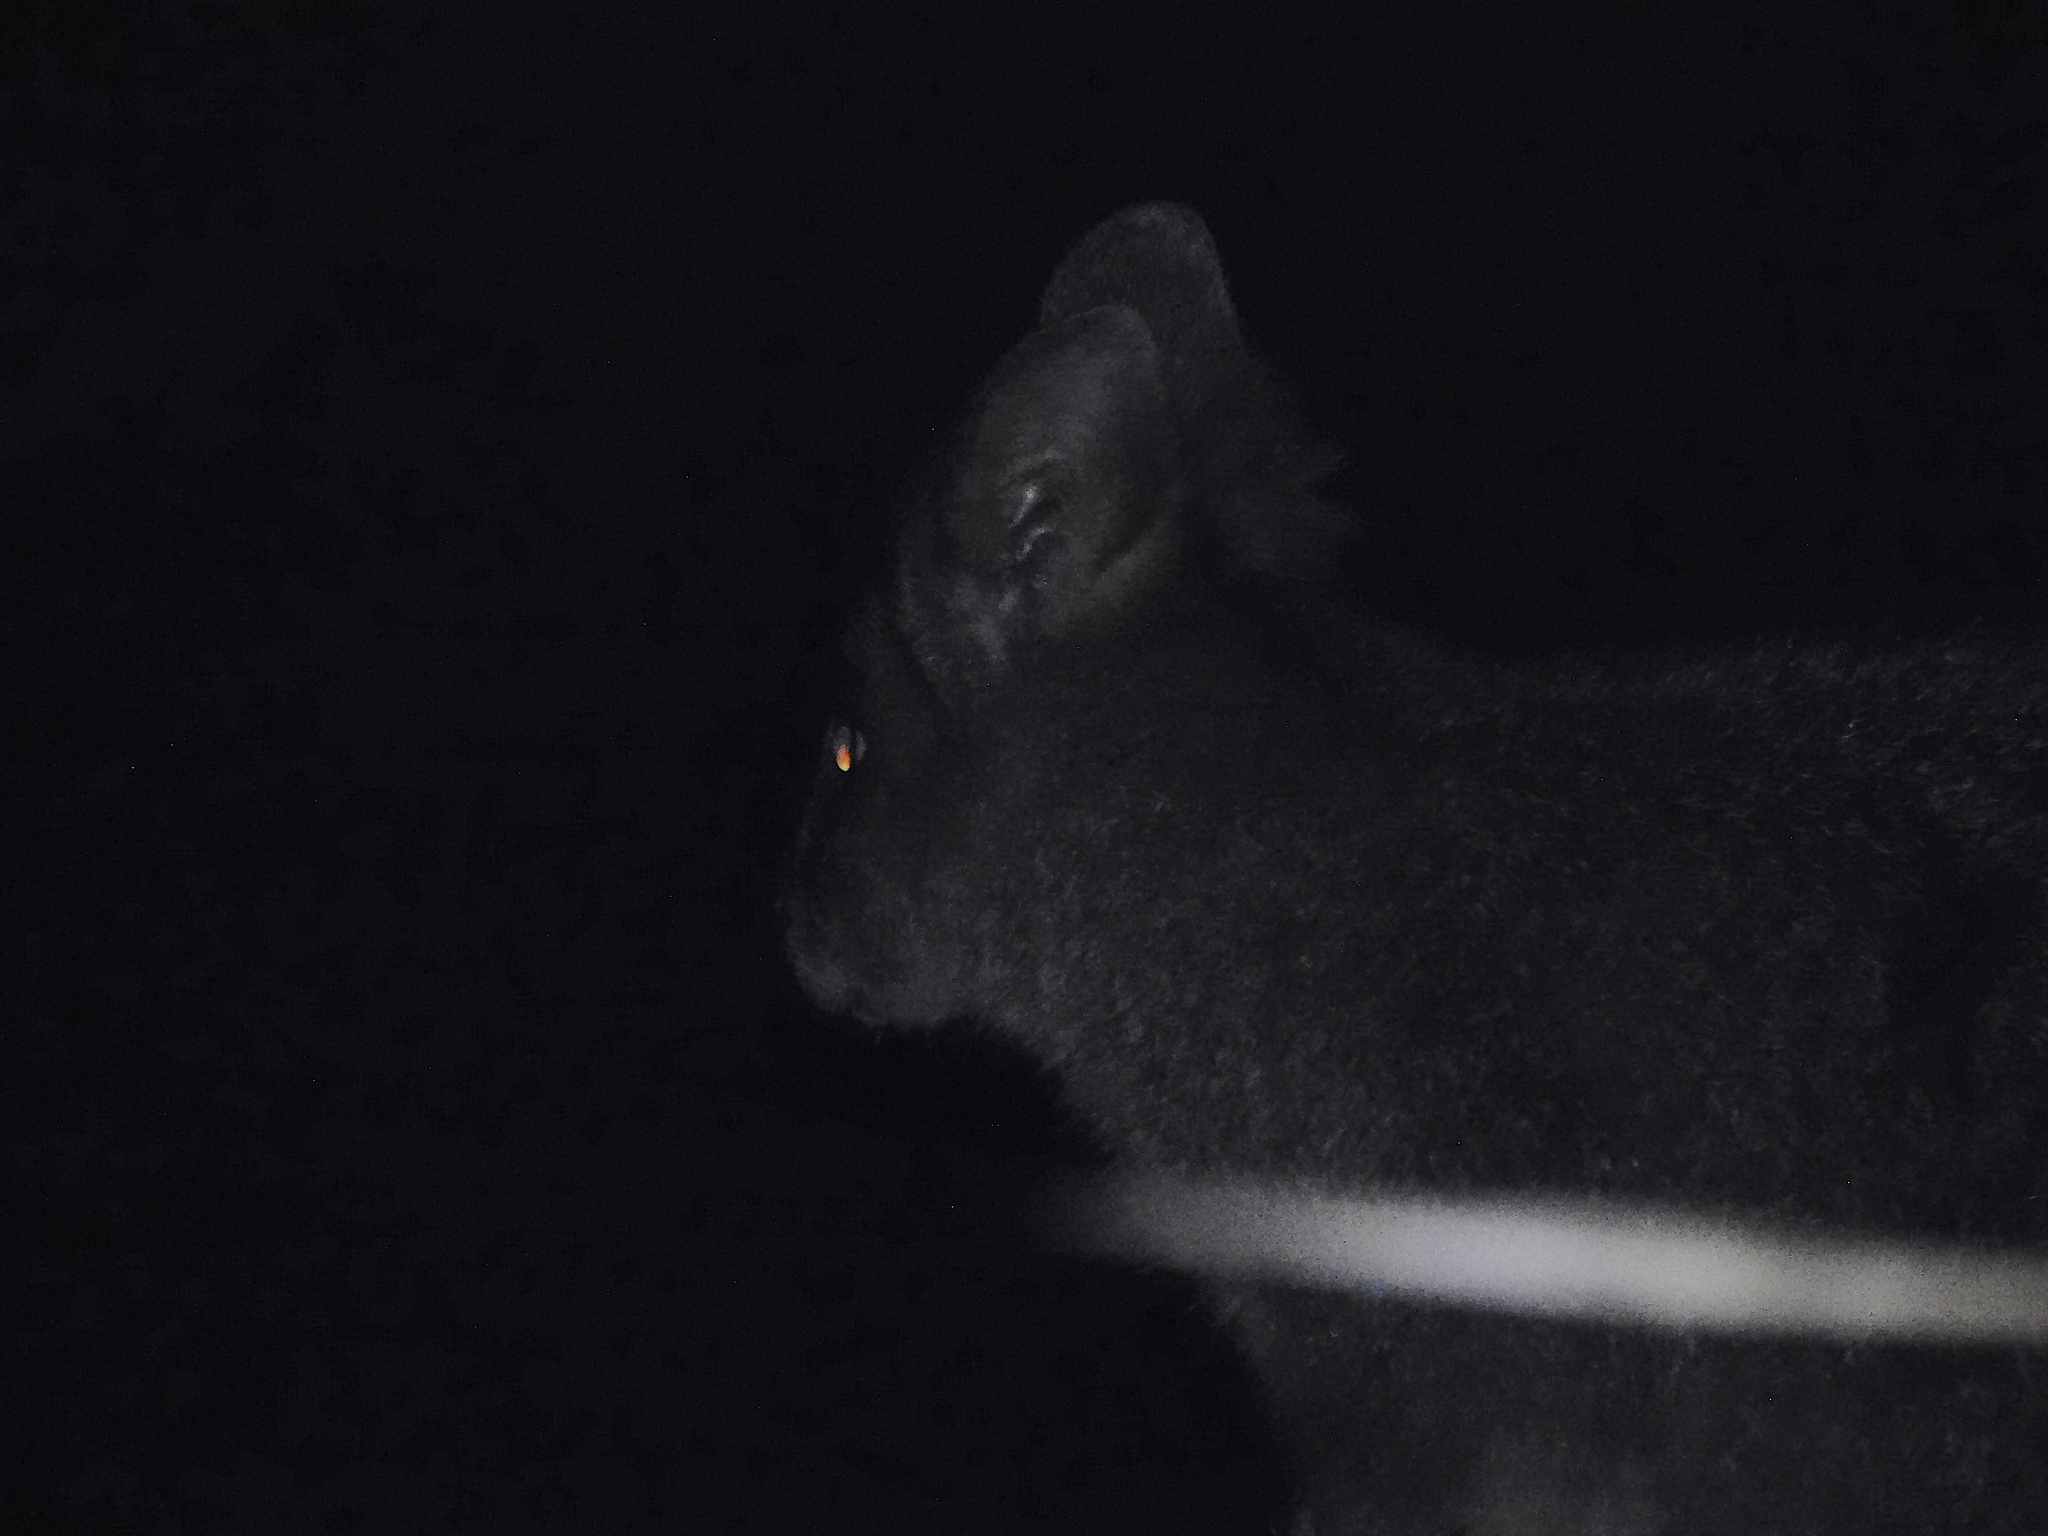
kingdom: Animalia
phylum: Chordata
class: Mammalia
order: Diprotodontia
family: Macropodidae
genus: Thylogale
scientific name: Thylogale billardierii
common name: Tasmanian pademelon
